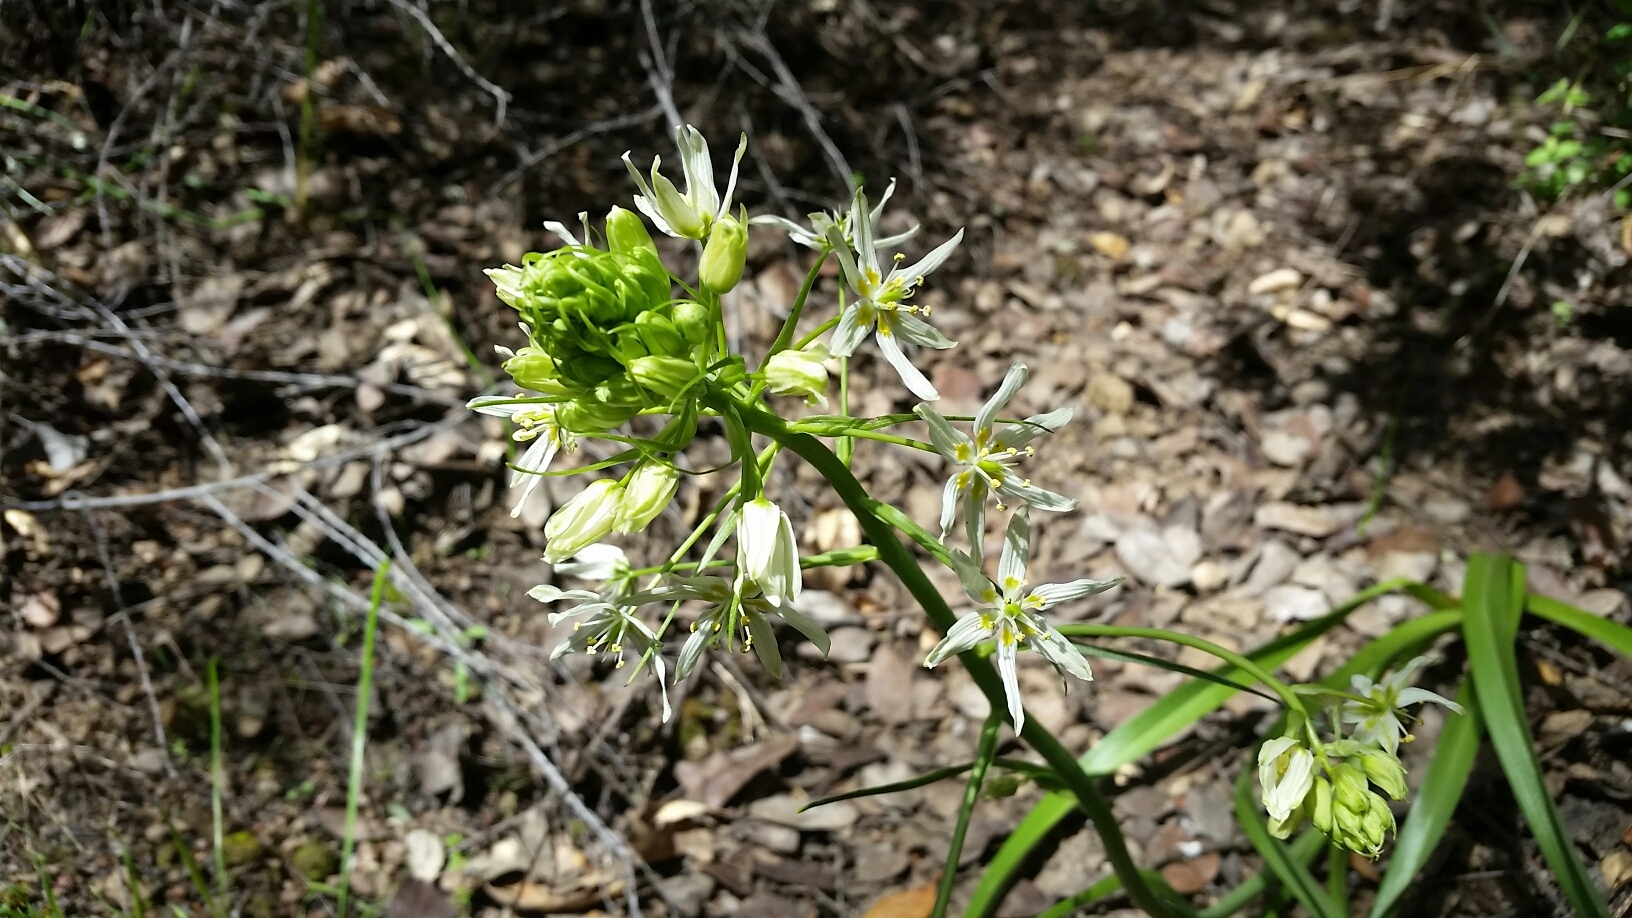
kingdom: Plantae
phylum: Tracheophyta
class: Liliopsida
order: Liliales
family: Melanthiaceae
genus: Toxicoscordion
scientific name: Toxicoscordion fremontii
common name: Fremont's death camas
